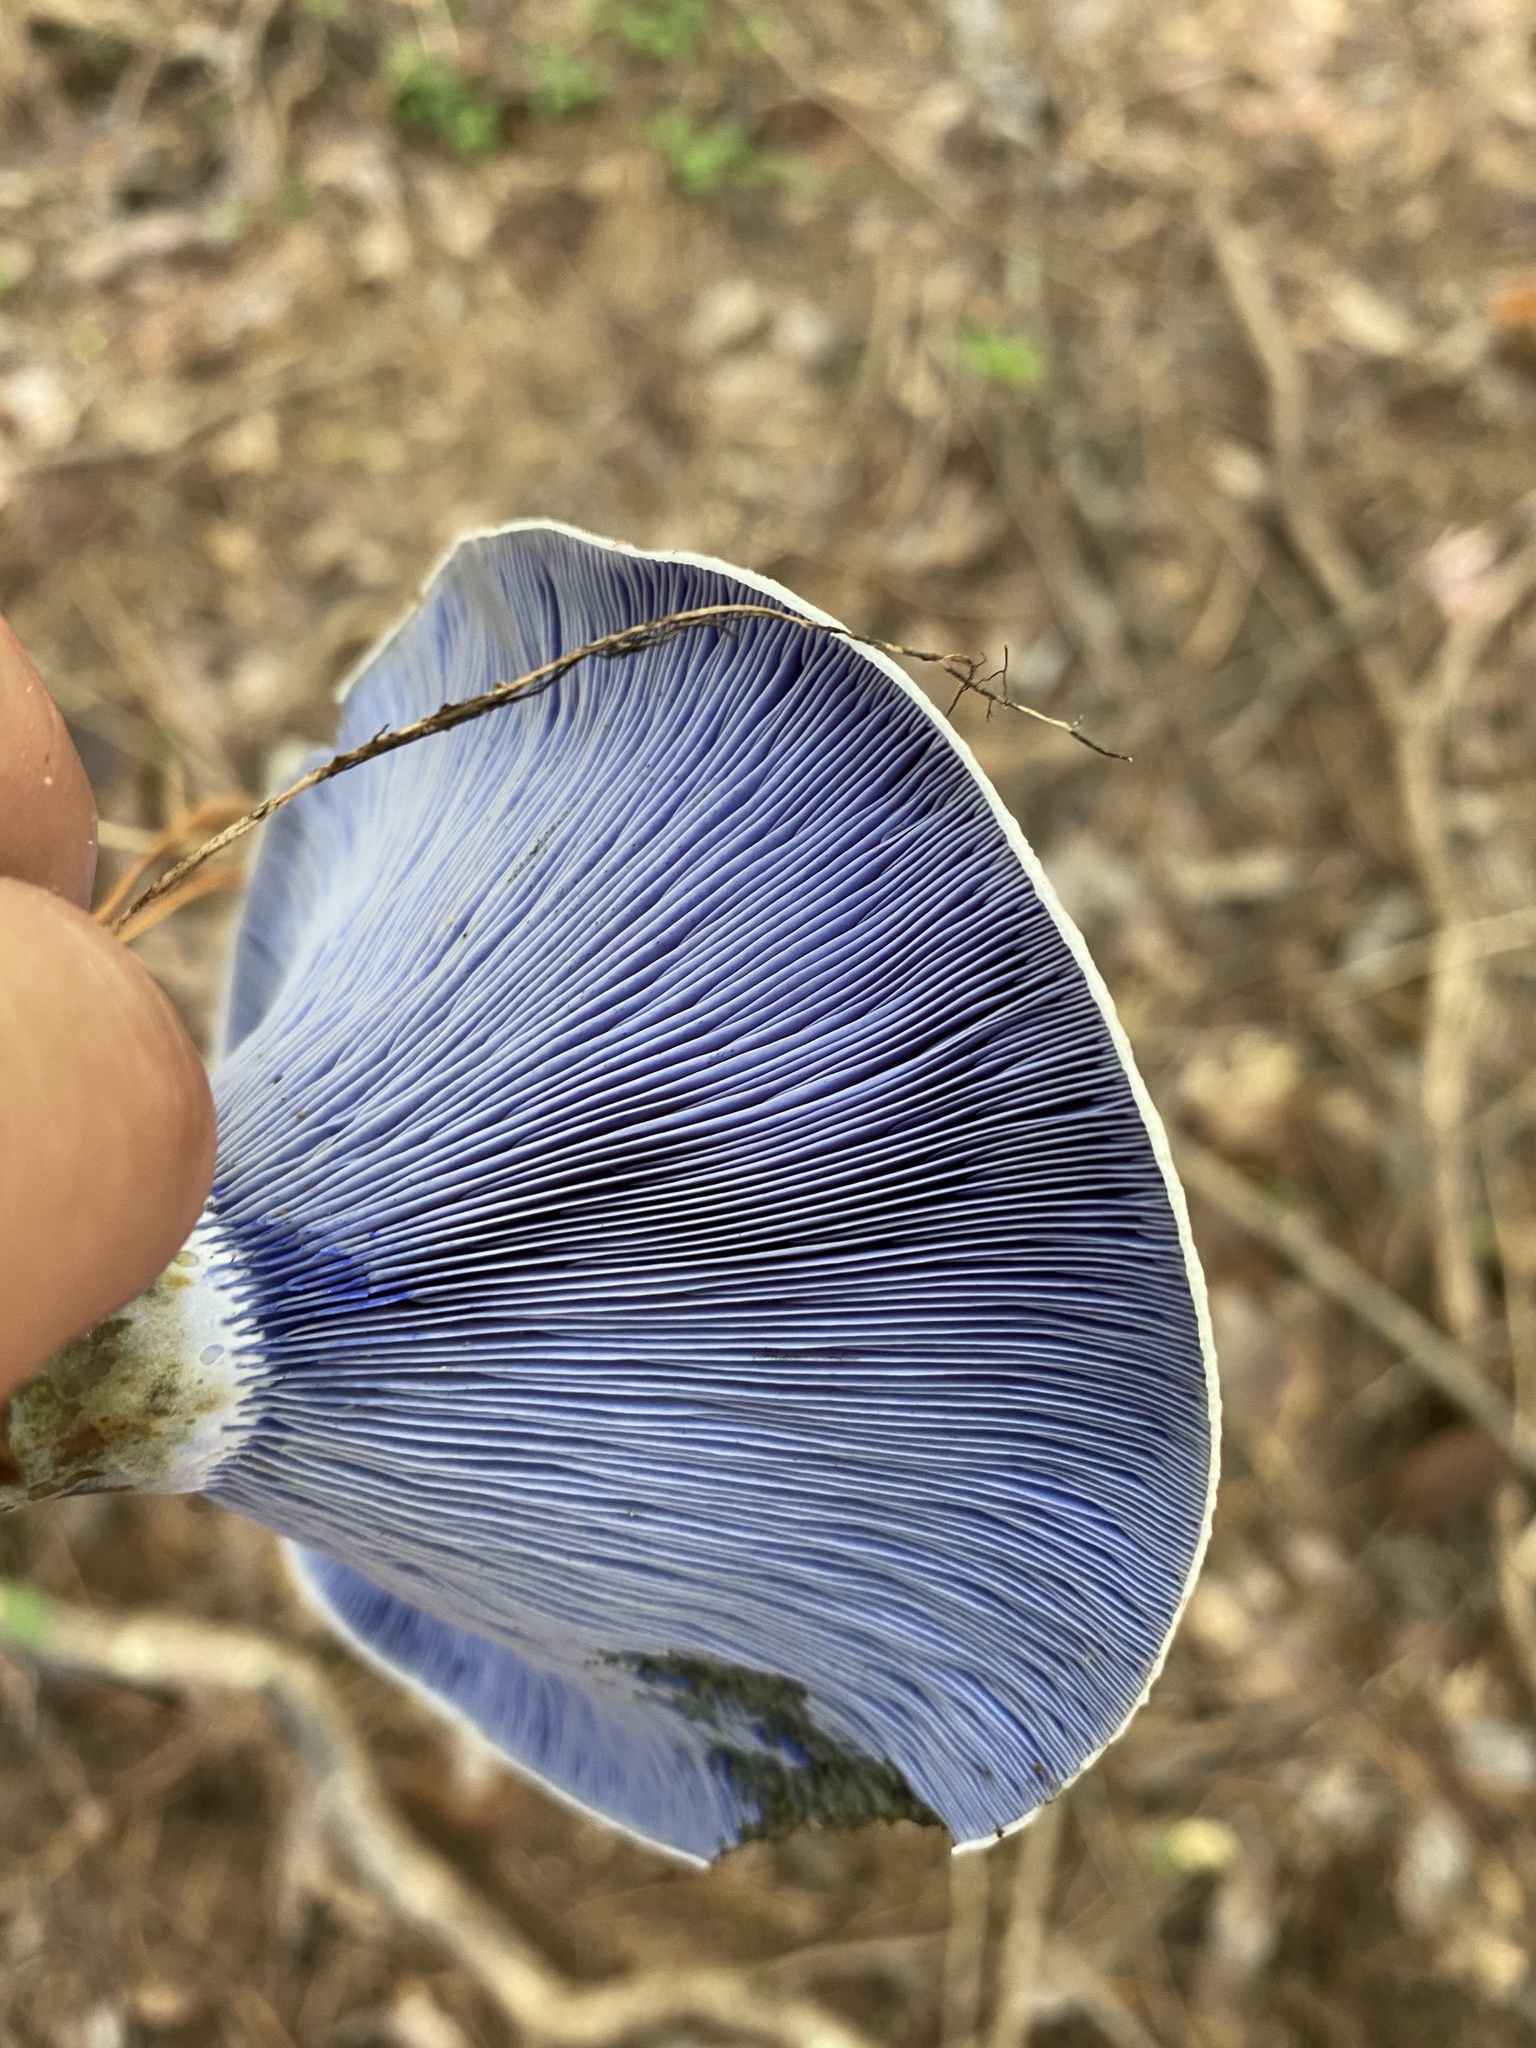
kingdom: Fungi
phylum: Basidiomycota
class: Agaricomycetes
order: Russulales
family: Russulaceae
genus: Lactarius
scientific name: Lactarius indigo
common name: Indigo milk cap
